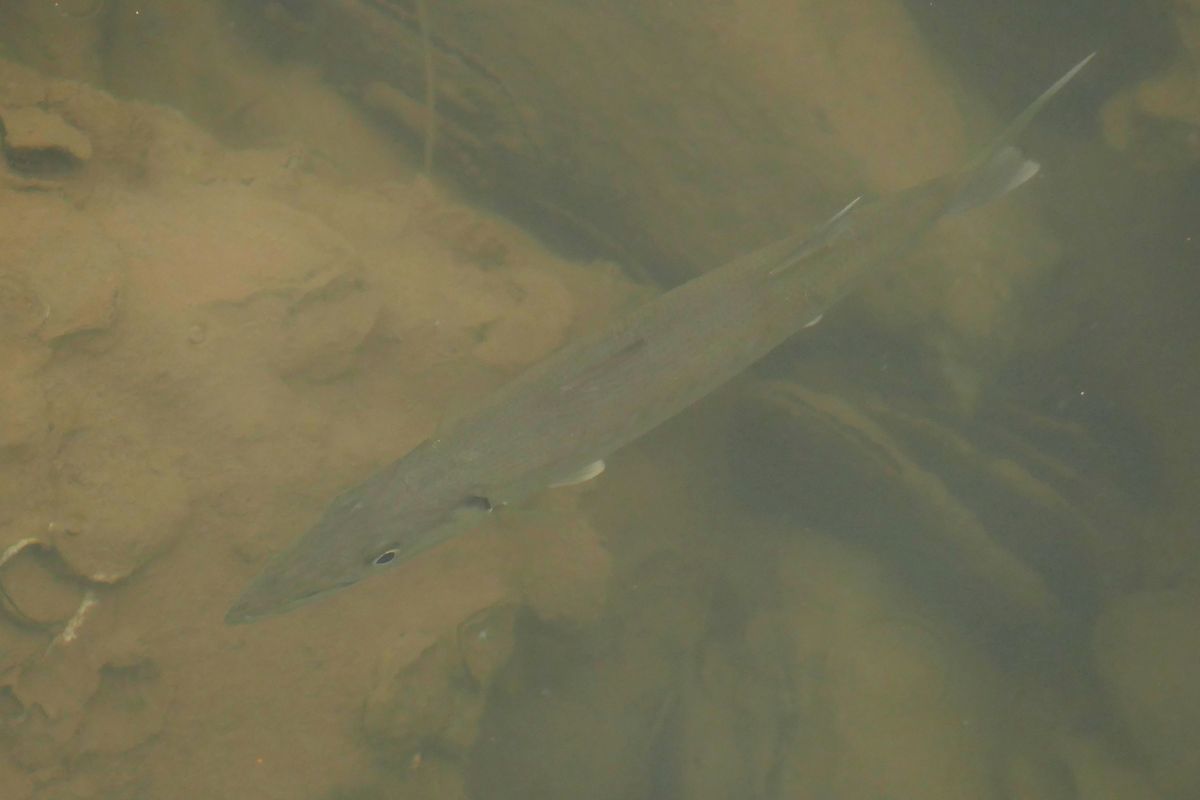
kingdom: Animalia
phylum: Chordata
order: Perciformes
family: Sphyraenidae
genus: Sphyraena
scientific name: Sphyraena barracuda
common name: Great barracuda
